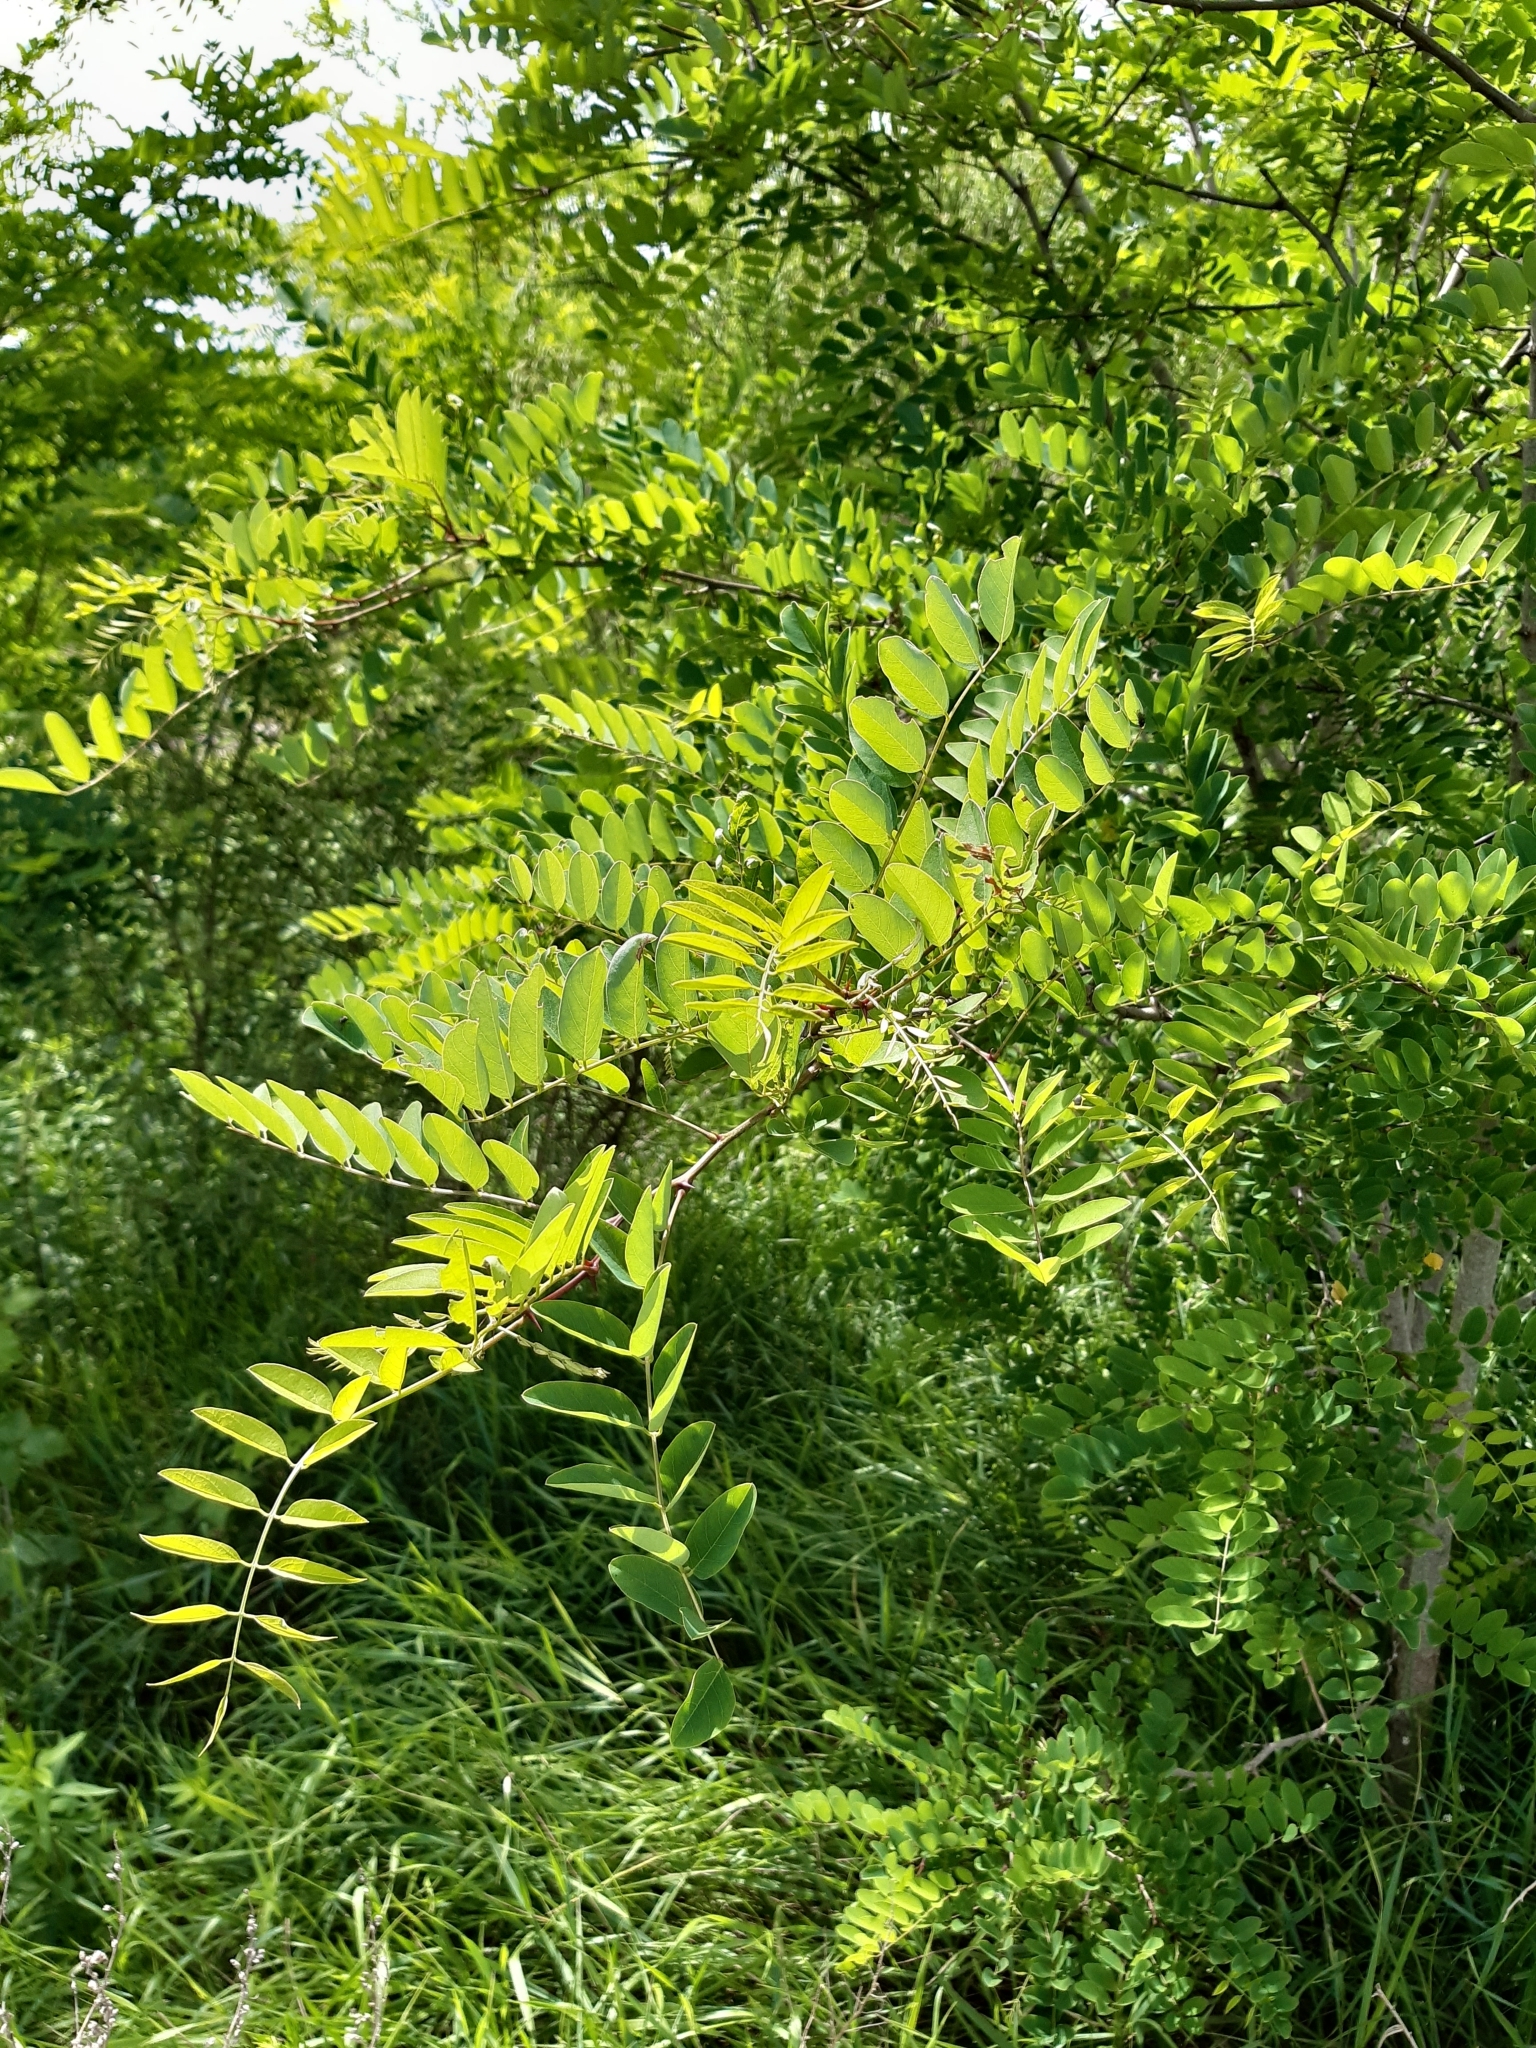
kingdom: Plantae
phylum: Tracheophyta
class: Magnoliopsida
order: Fabales
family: Fabaceae
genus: Robinia
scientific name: Robinia pseudoacacia
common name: Black locust
